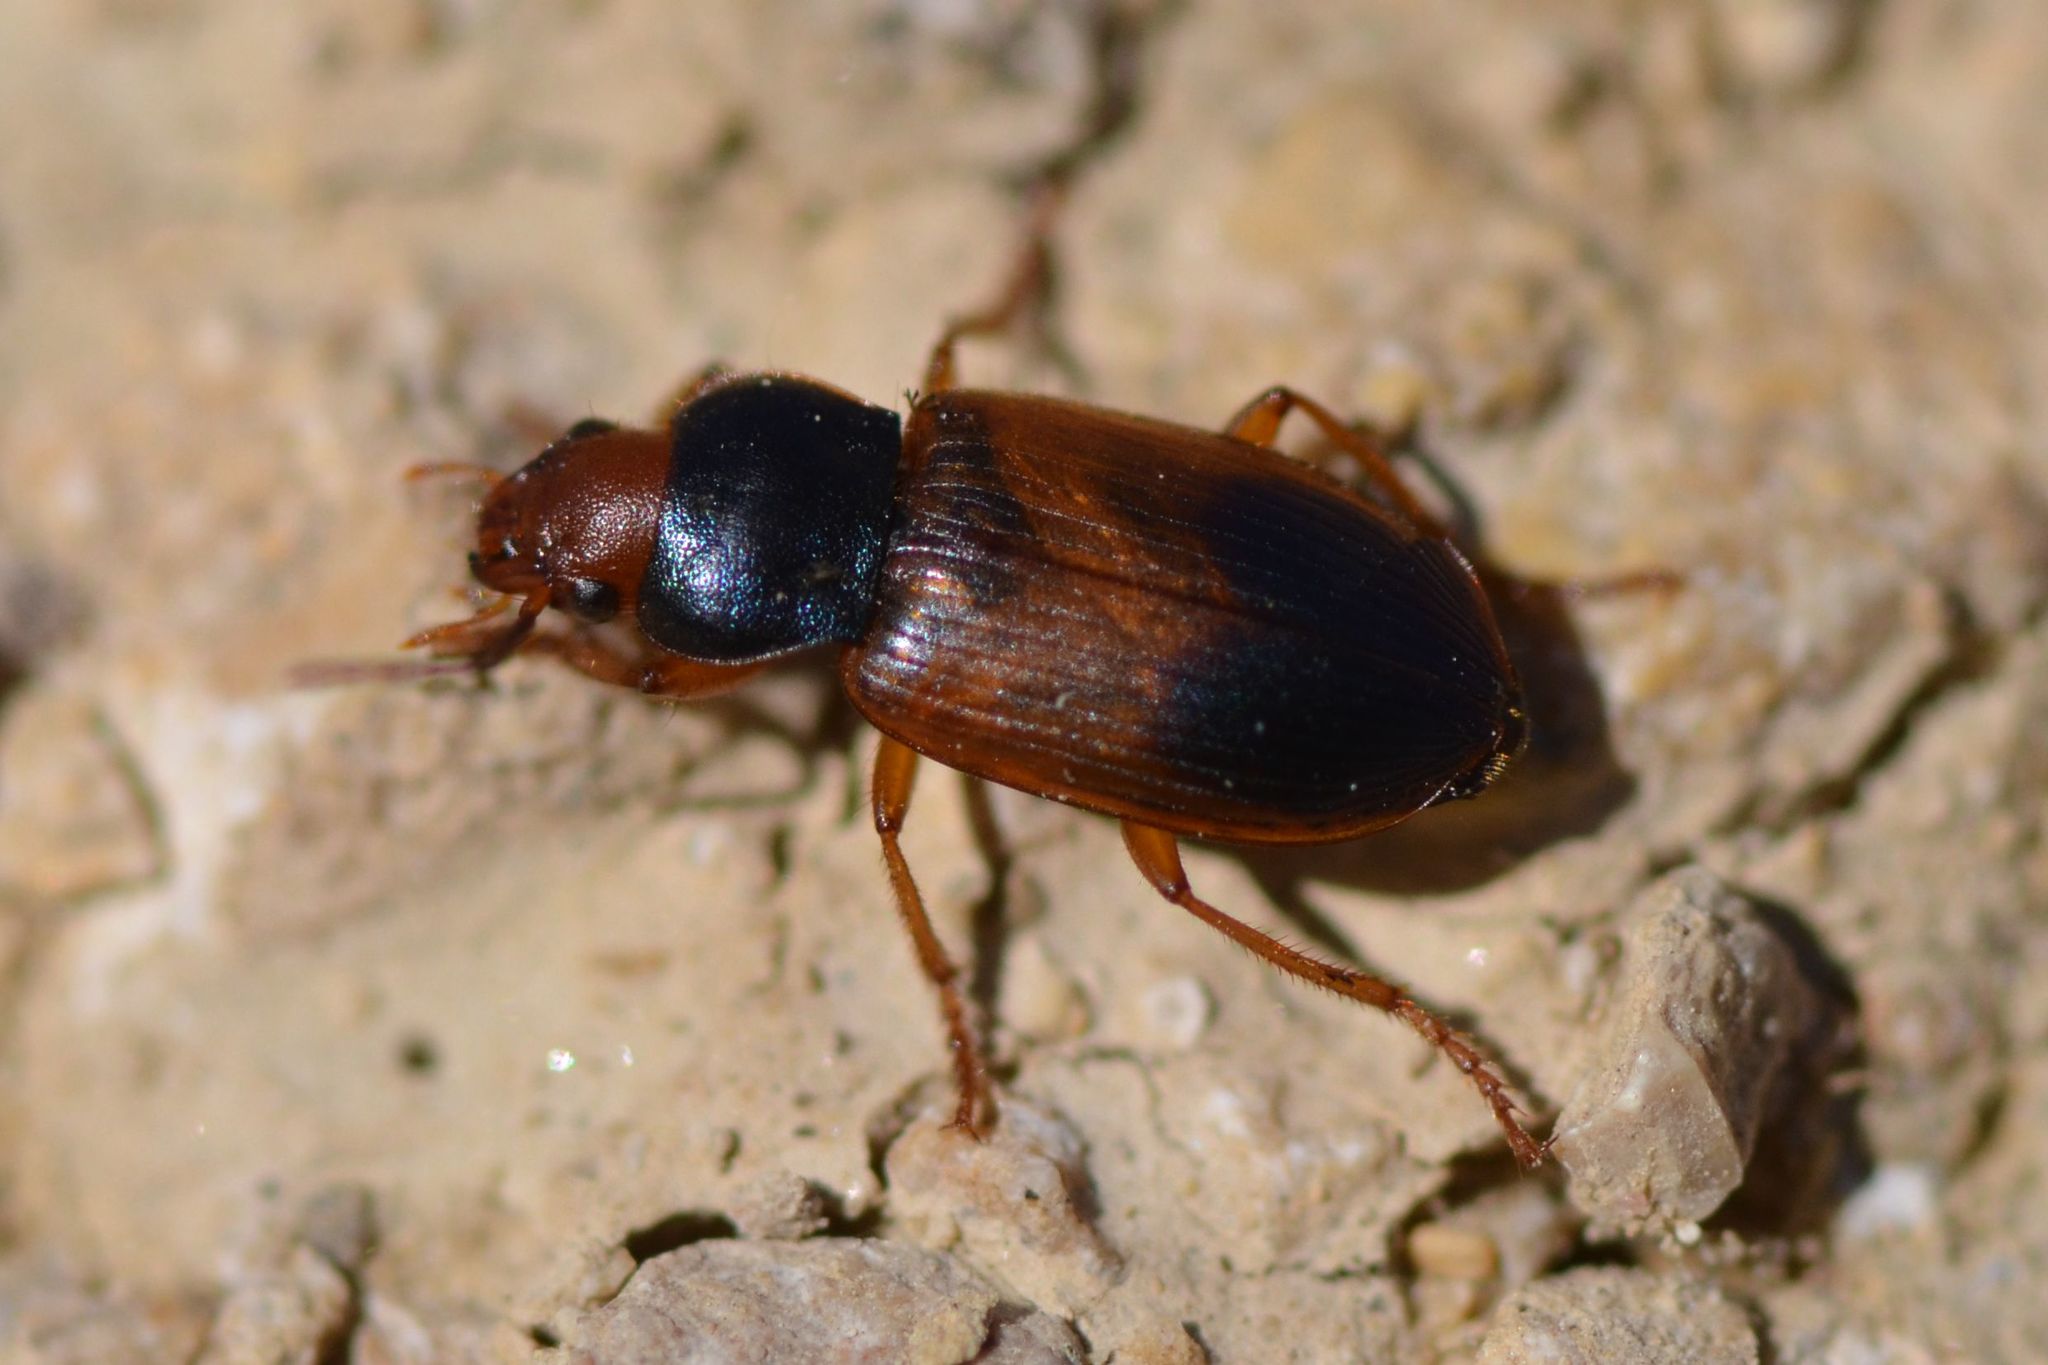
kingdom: Animalia
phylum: Arthropoda
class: Insecta
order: Coleoptera
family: Carabidae
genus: Diachromus
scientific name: Diachromus germanus
